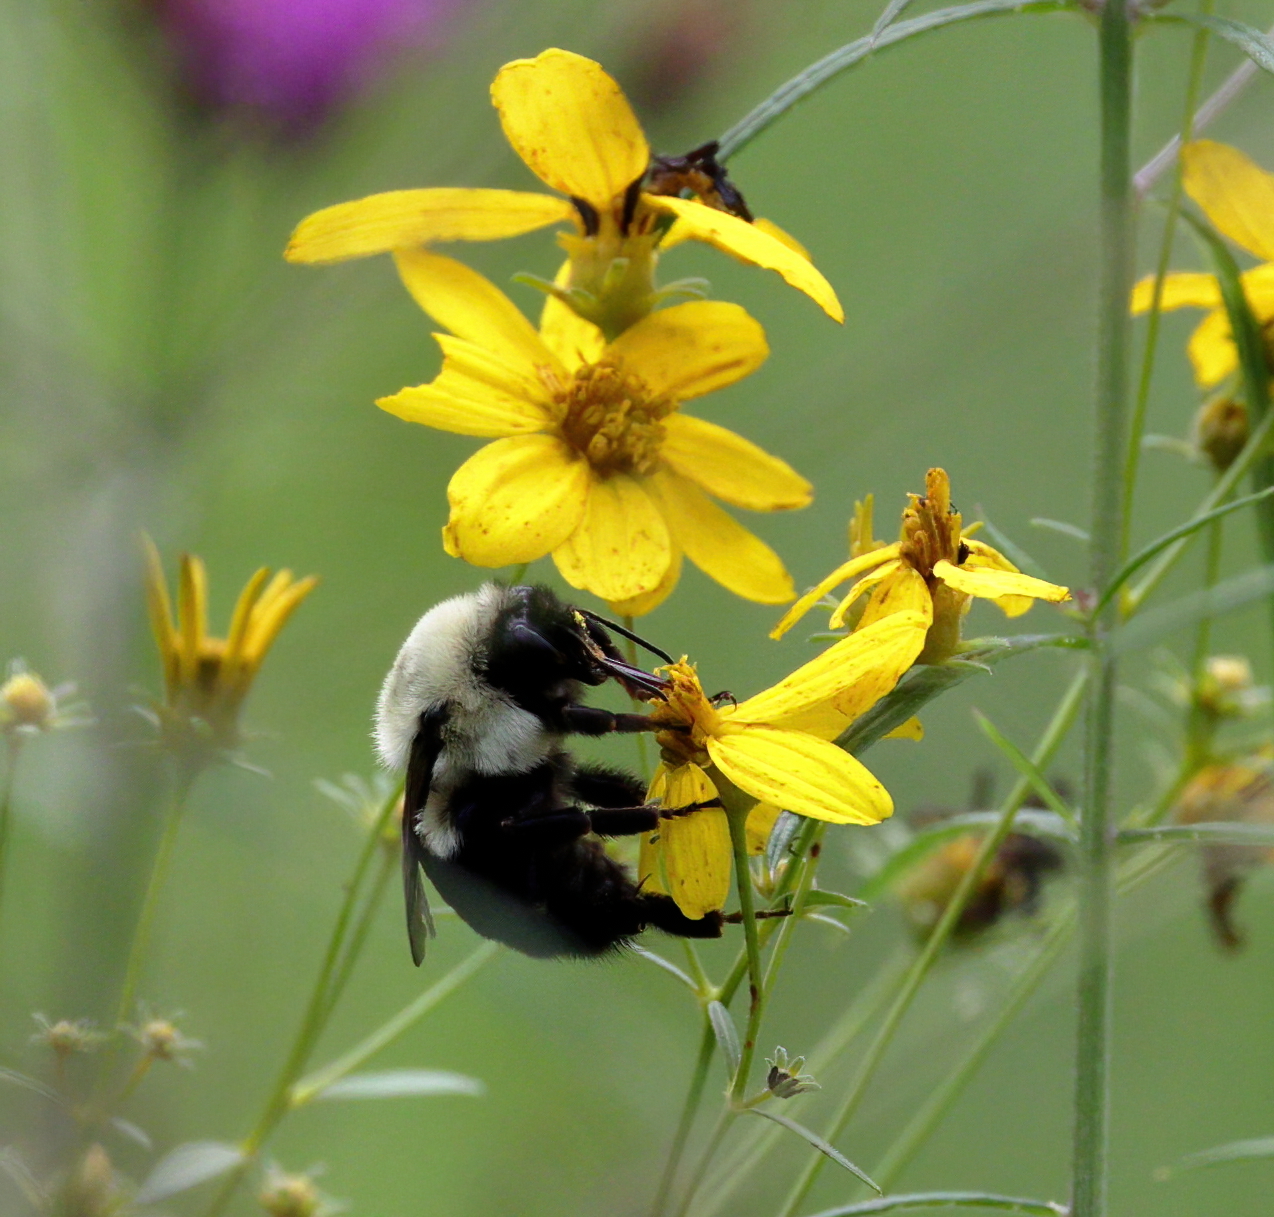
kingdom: Animalia
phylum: Arthropoda
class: Insecta
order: Hymenoptera
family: Apidae
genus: Bombus
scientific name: Bombus impatiens
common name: Common eastern bumble bee
